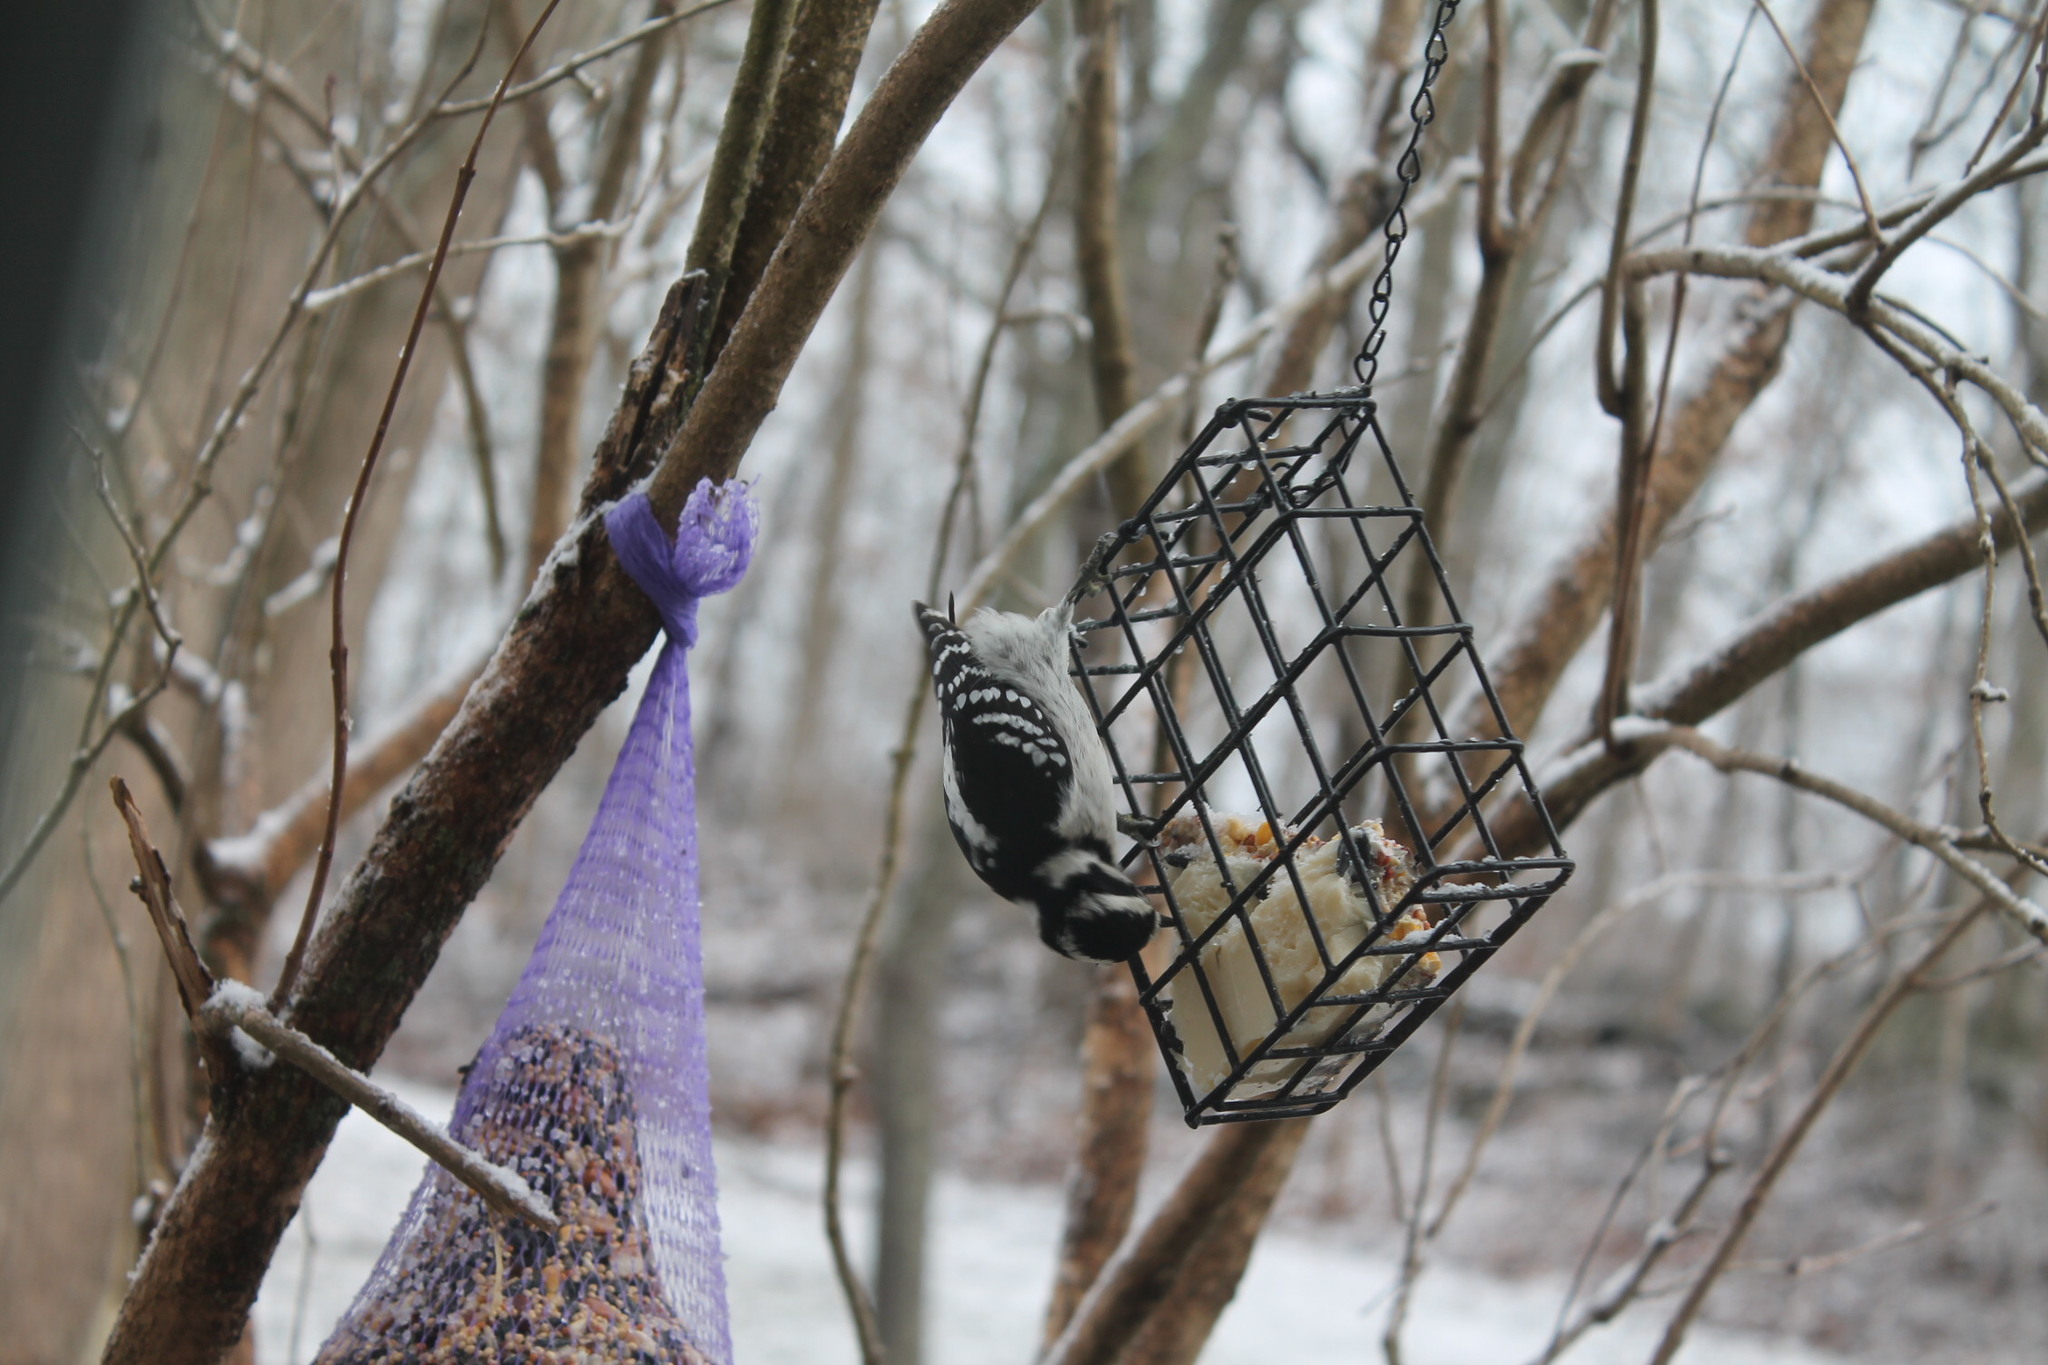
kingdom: Animalia
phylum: Chordata
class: Aves
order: Piciformes
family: Picidae
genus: Dryobates
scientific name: Dryobates pubescens
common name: Downy woodpecker
